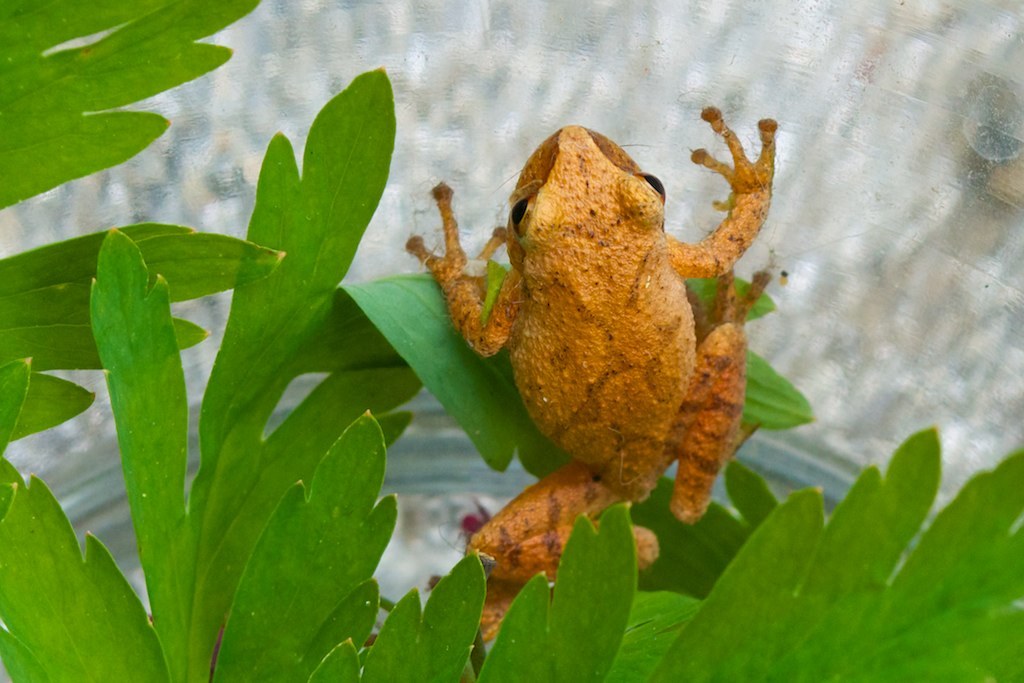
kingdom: Animalia
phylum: Chordata
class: Amphibia
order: Anura
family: Hylidae
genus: Pseudacris
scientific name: Pseudacris crucifer
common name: Spring peeper
